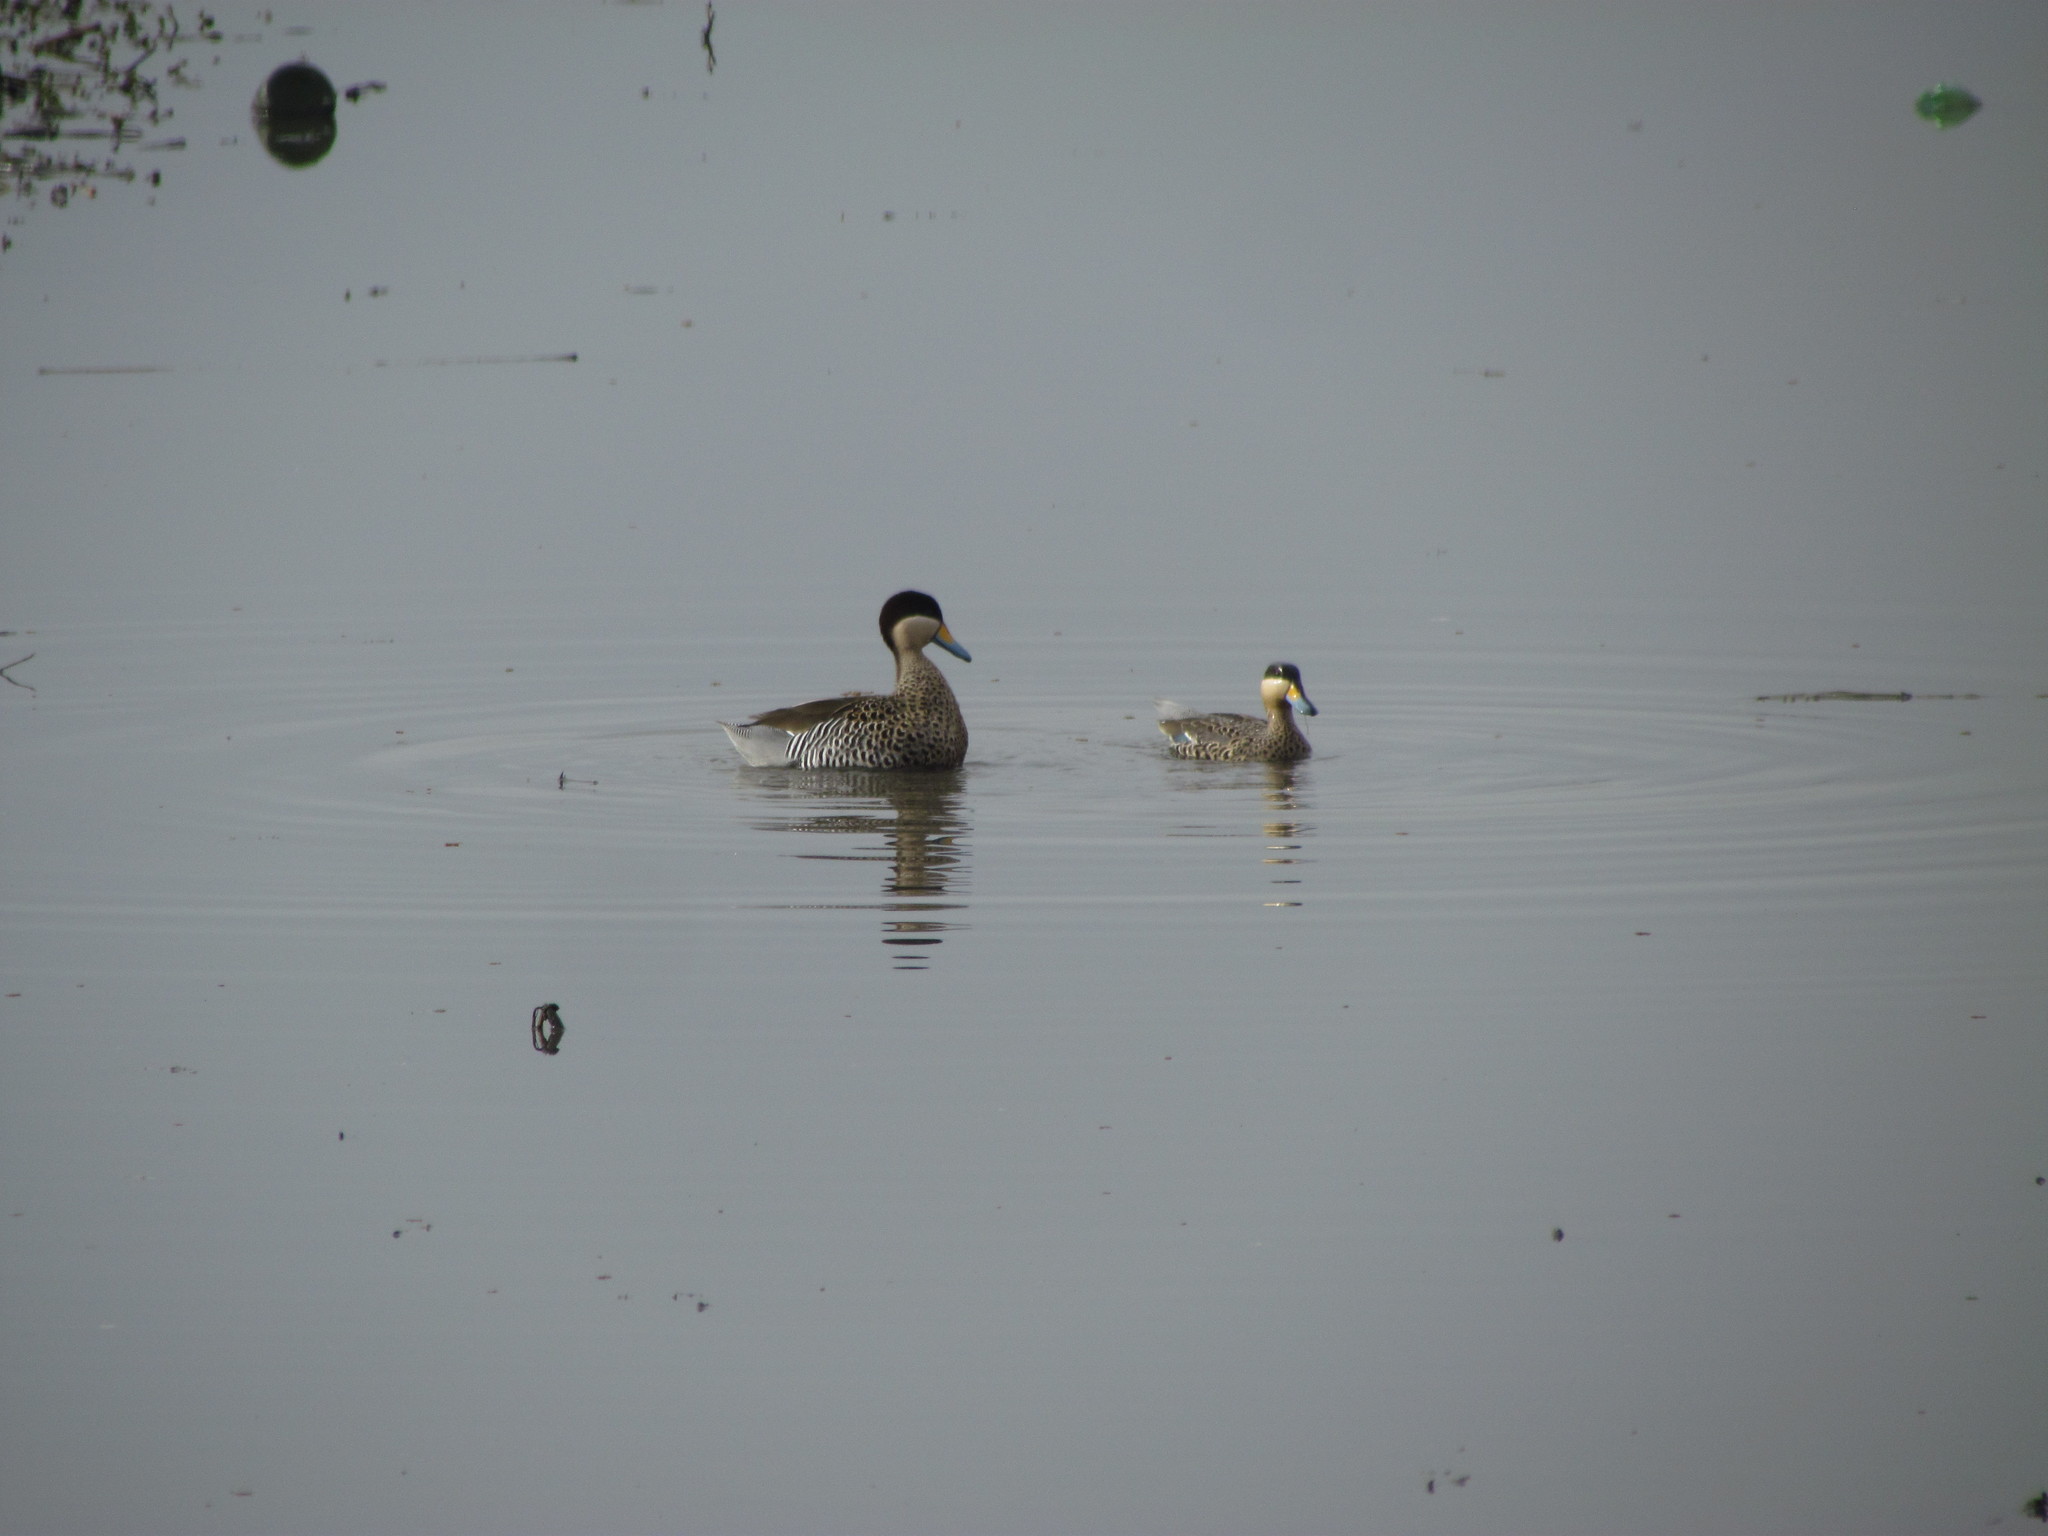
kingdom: Animalia
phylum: Chordata
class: Aves
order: Anseriformes
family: Anatidae
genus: Spatula
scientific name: Spatula versicolor
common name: Silver teal
